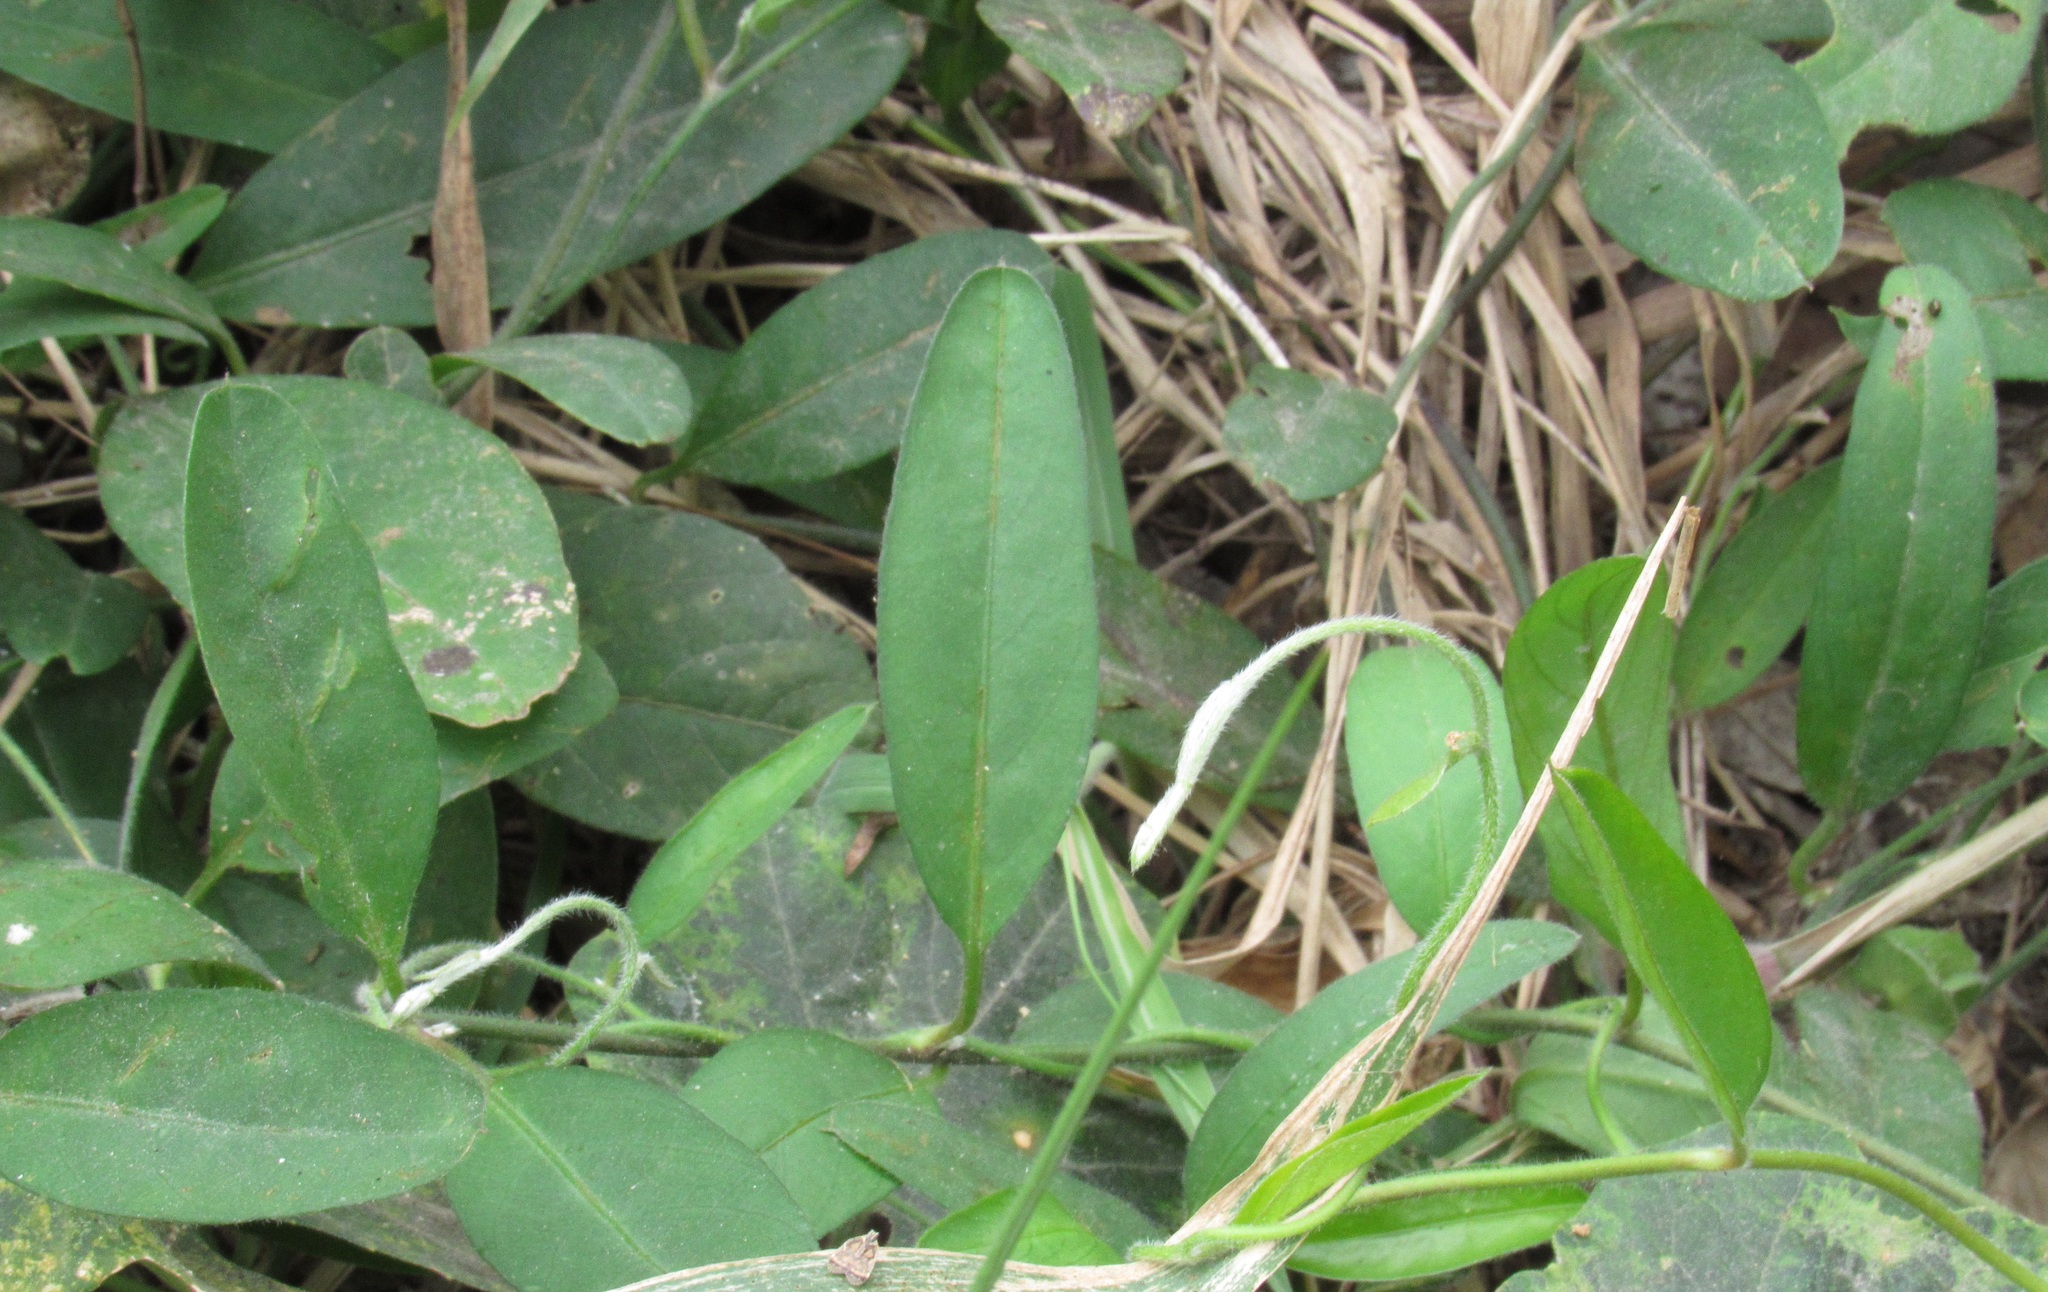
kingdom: Plantae
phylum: Tracheophyta
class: Magnoliopsida
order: Solanales
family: Convolvulaceae
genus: Aniseia
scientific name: Aniseia martinicensis
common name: Kulayadambu
